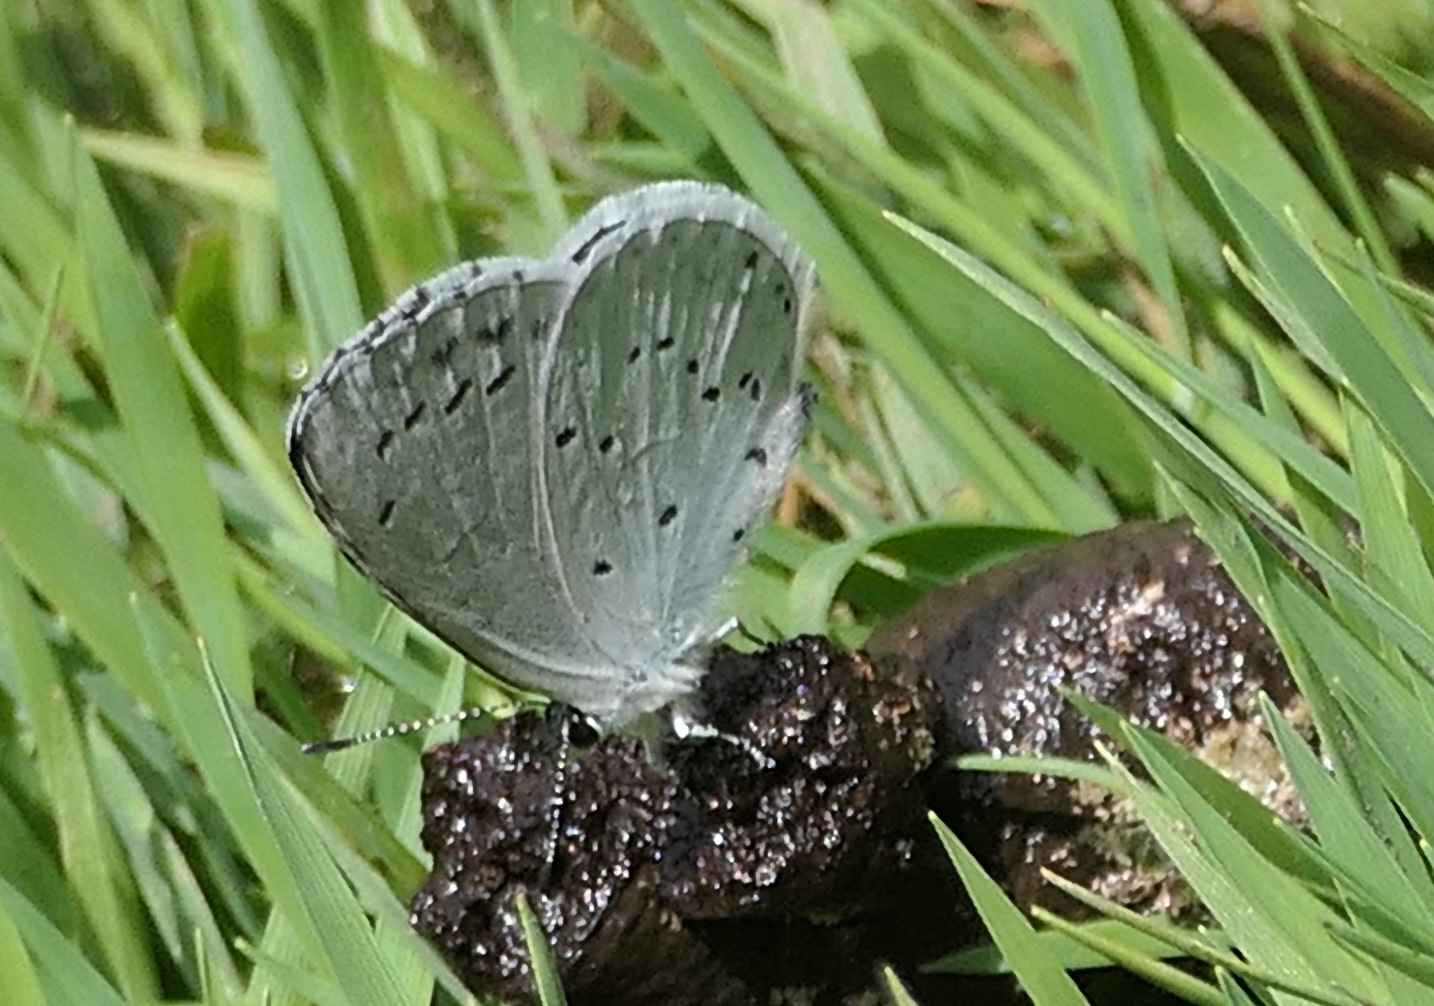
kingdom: Animalia
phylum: Arthropoda
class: Insecta
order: Lepidoptera
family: Lycaenidae
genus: Celastrina
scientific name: Celastrina argiolus
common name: Holly blue
